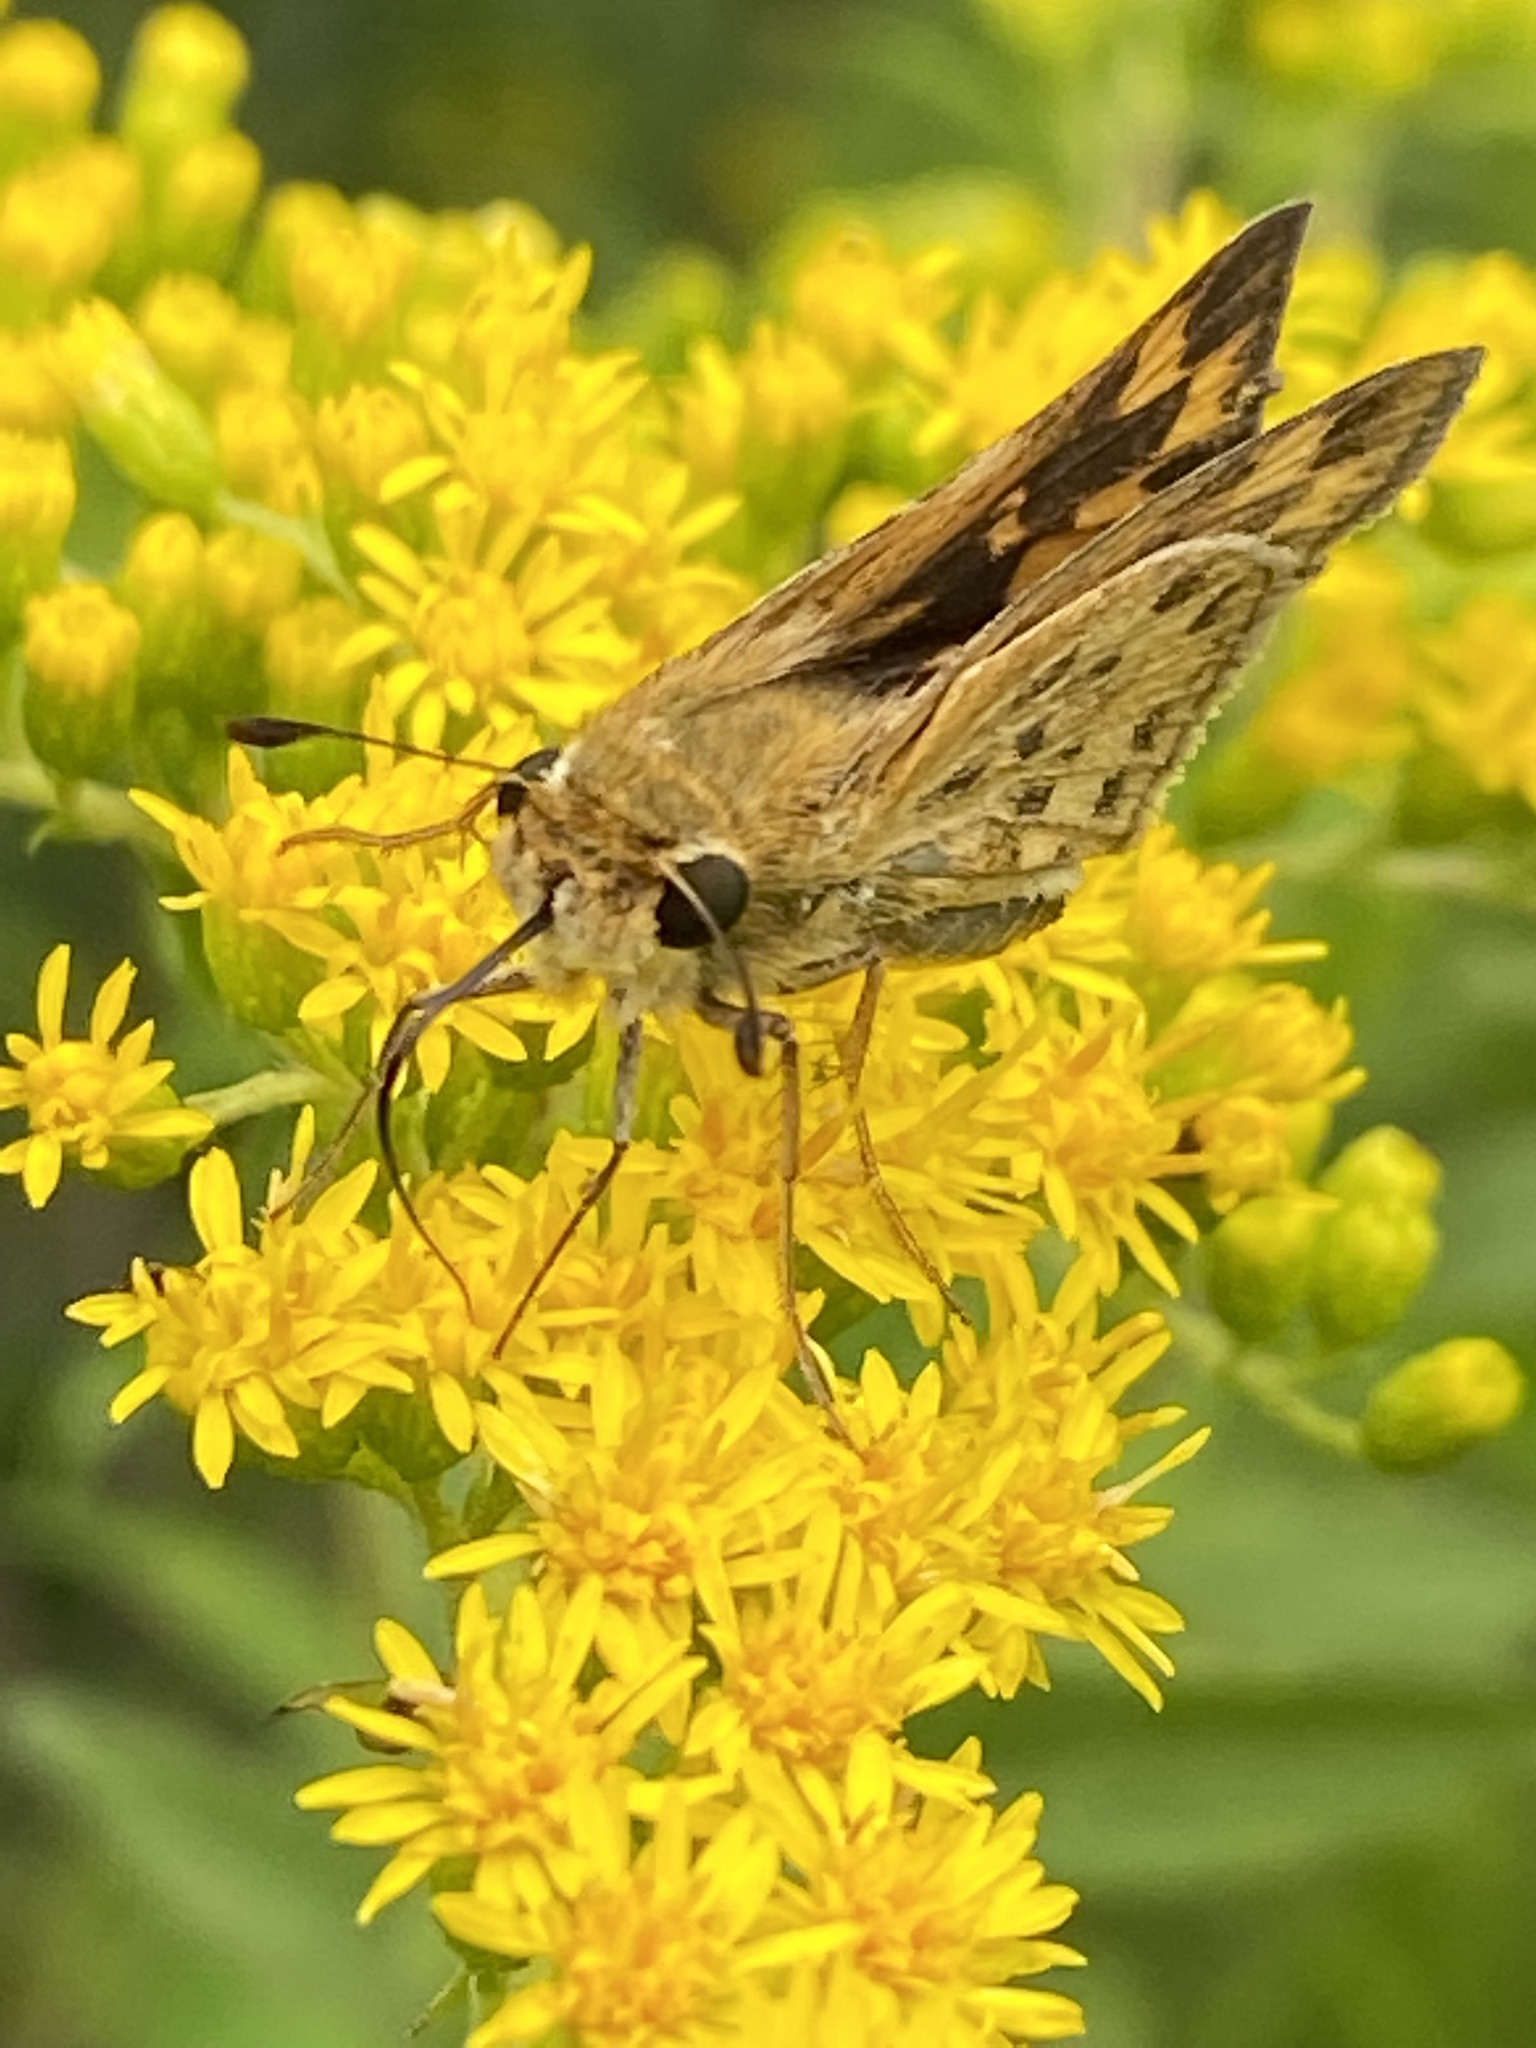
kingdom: Animalia
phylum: Arthropoda
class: Insecta
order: Lepidoptera
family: Hesperiidae
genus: Hylephila
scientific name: Hylephila phyleus
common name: Fiery skipper
